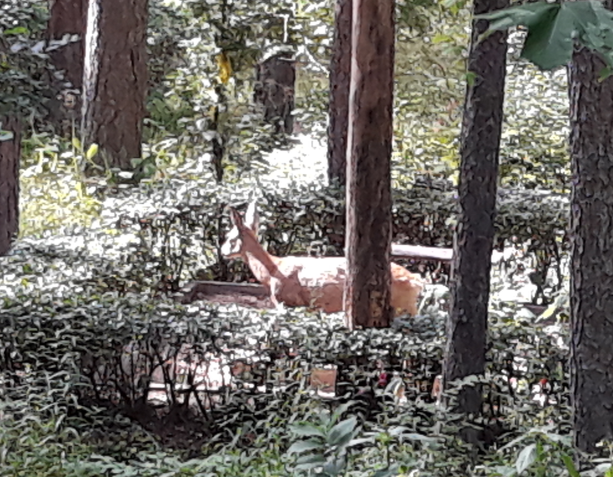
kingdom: Animalia
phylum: Chordata
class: Mammalia
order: Artiodactyla
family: Cervidae
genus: Capreolus
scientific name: Capreolus capreolus
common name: Western roe deer
